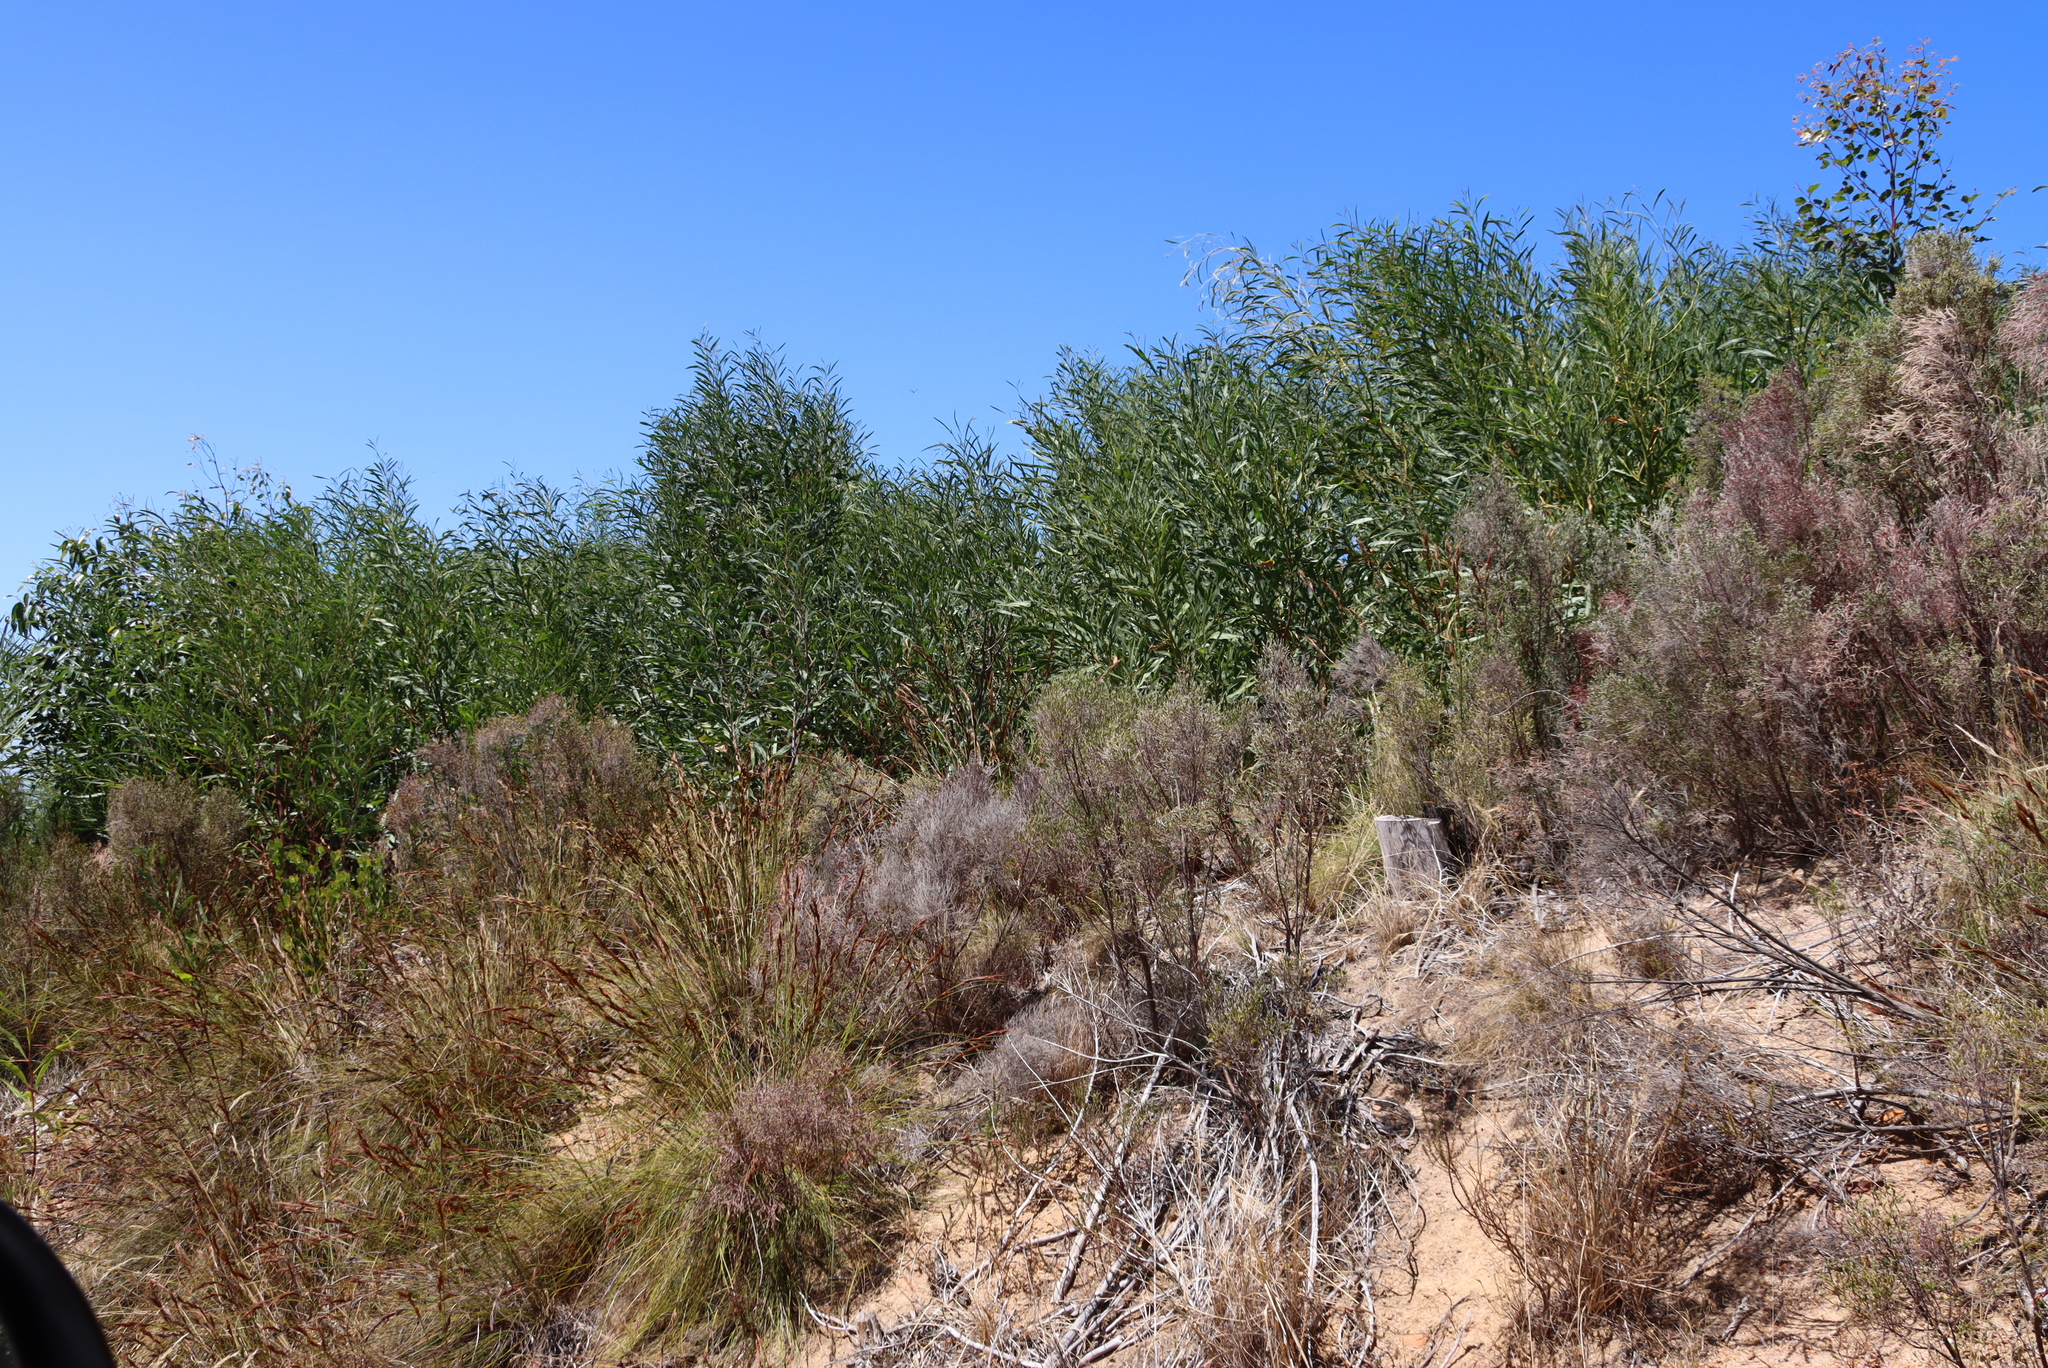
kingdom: Plantae
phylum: Tracheophyta
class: Magnoliopsida
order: Fabales
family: Fabaceae
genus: Acacia
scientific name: Acacia saligna
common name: Orange wattle
